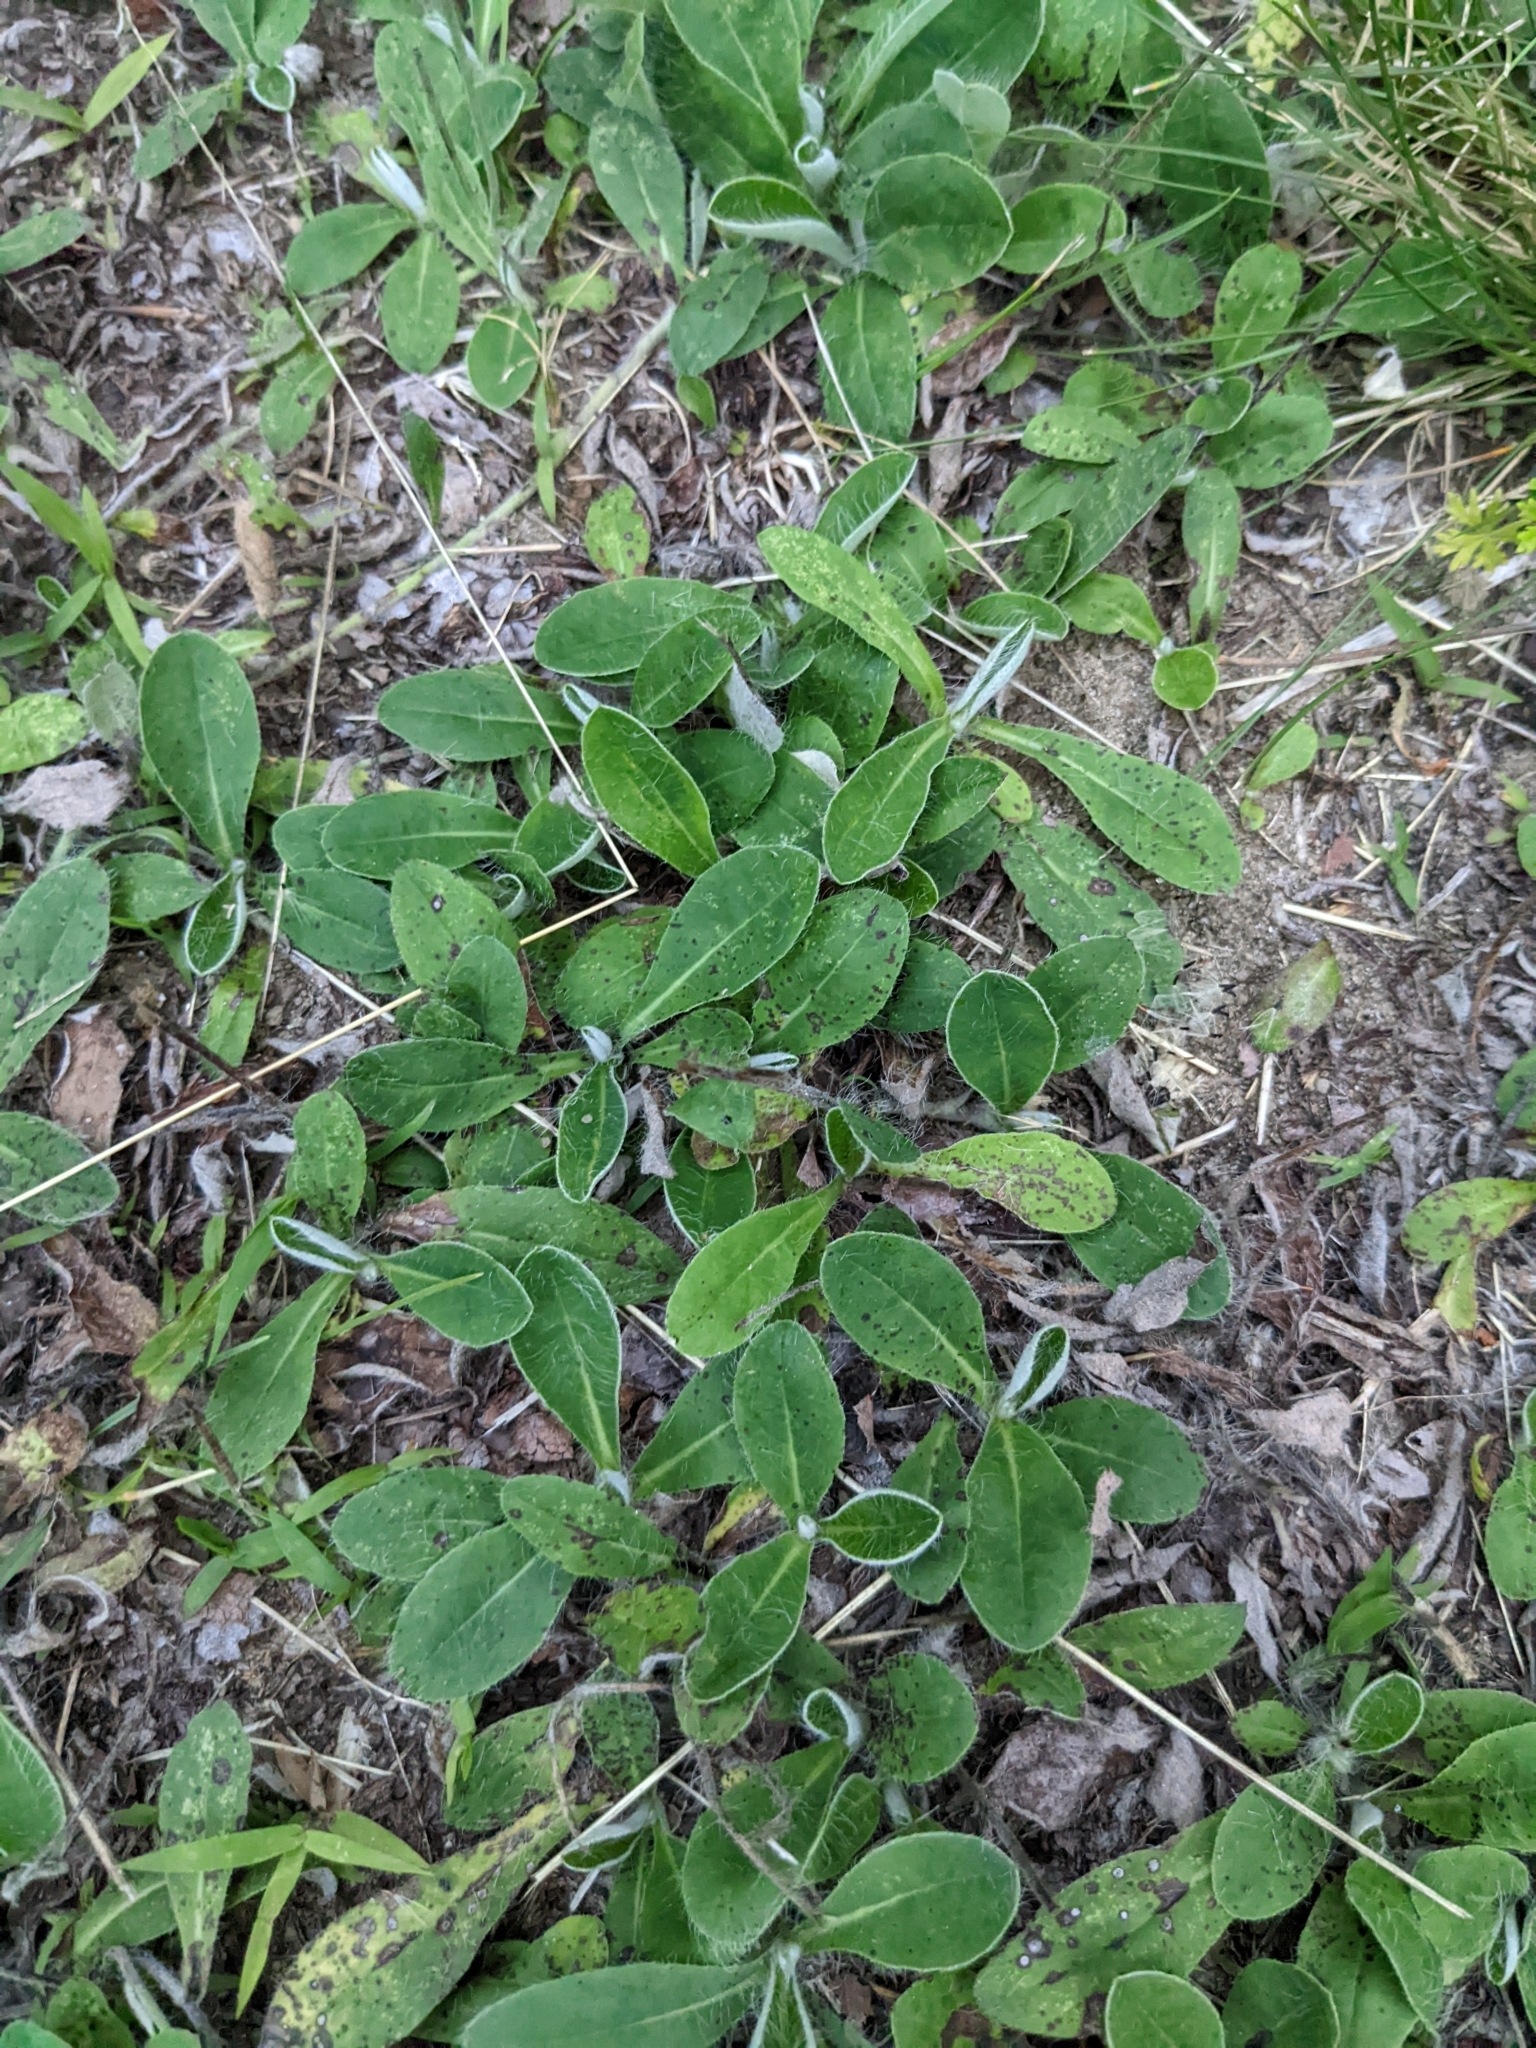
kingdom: Plantae
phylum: Tracheophyta
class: Magnoliopsida
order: Asterales
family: Asteraceae
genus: Pilosella
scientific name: Pilosella officinarum
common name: Mouse-ear hawkweed
